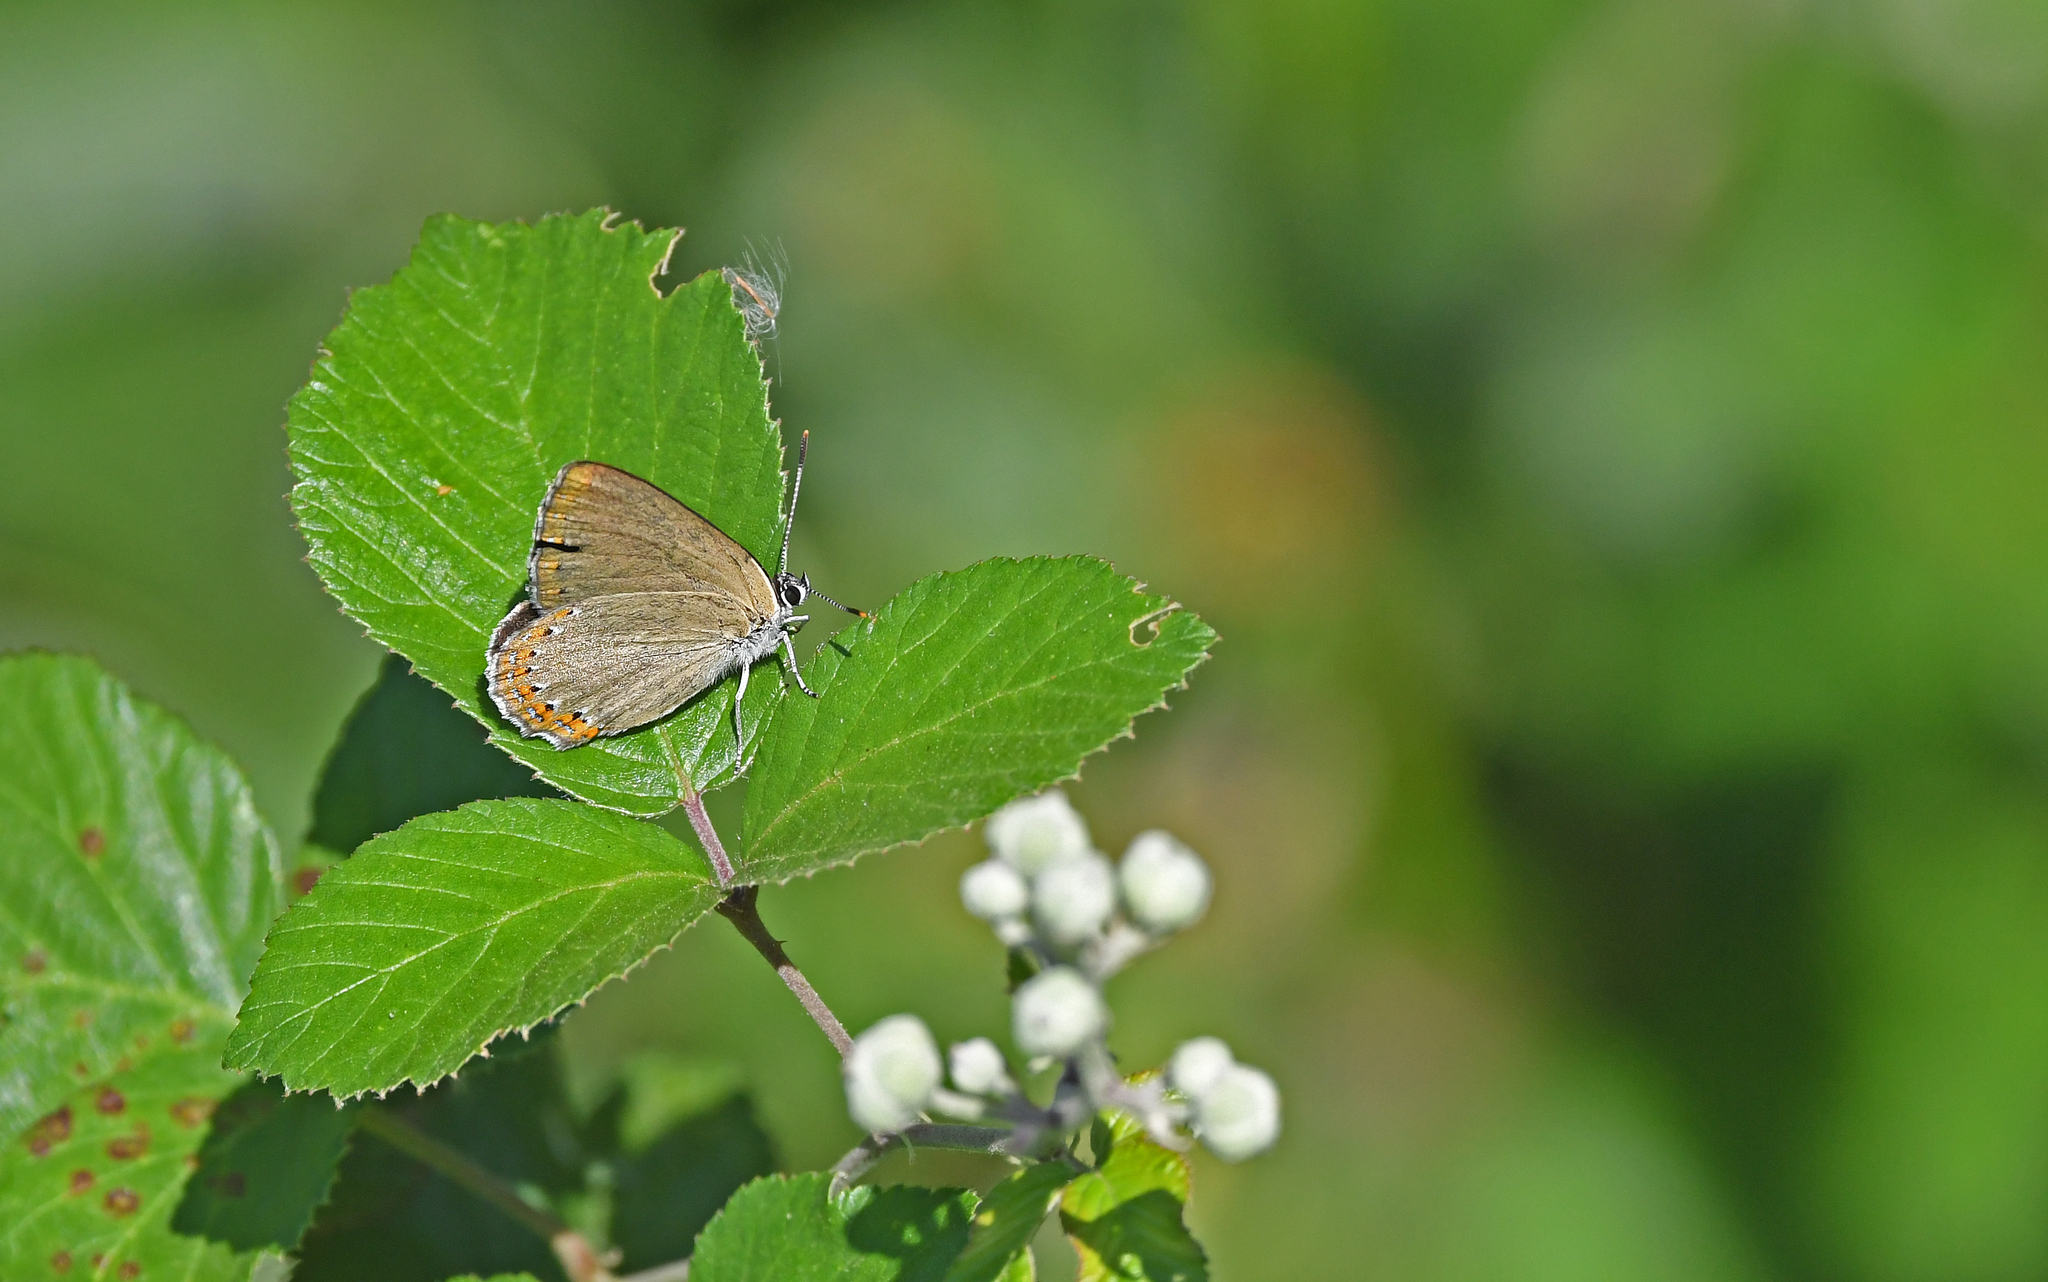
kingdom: Animalia
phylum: Arthropoda
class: Insecta
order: Lepidoptera
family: Lycaenidae
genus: Laeosopis
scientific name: Laeosopis roboris
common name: Spanish purple hairstreak
